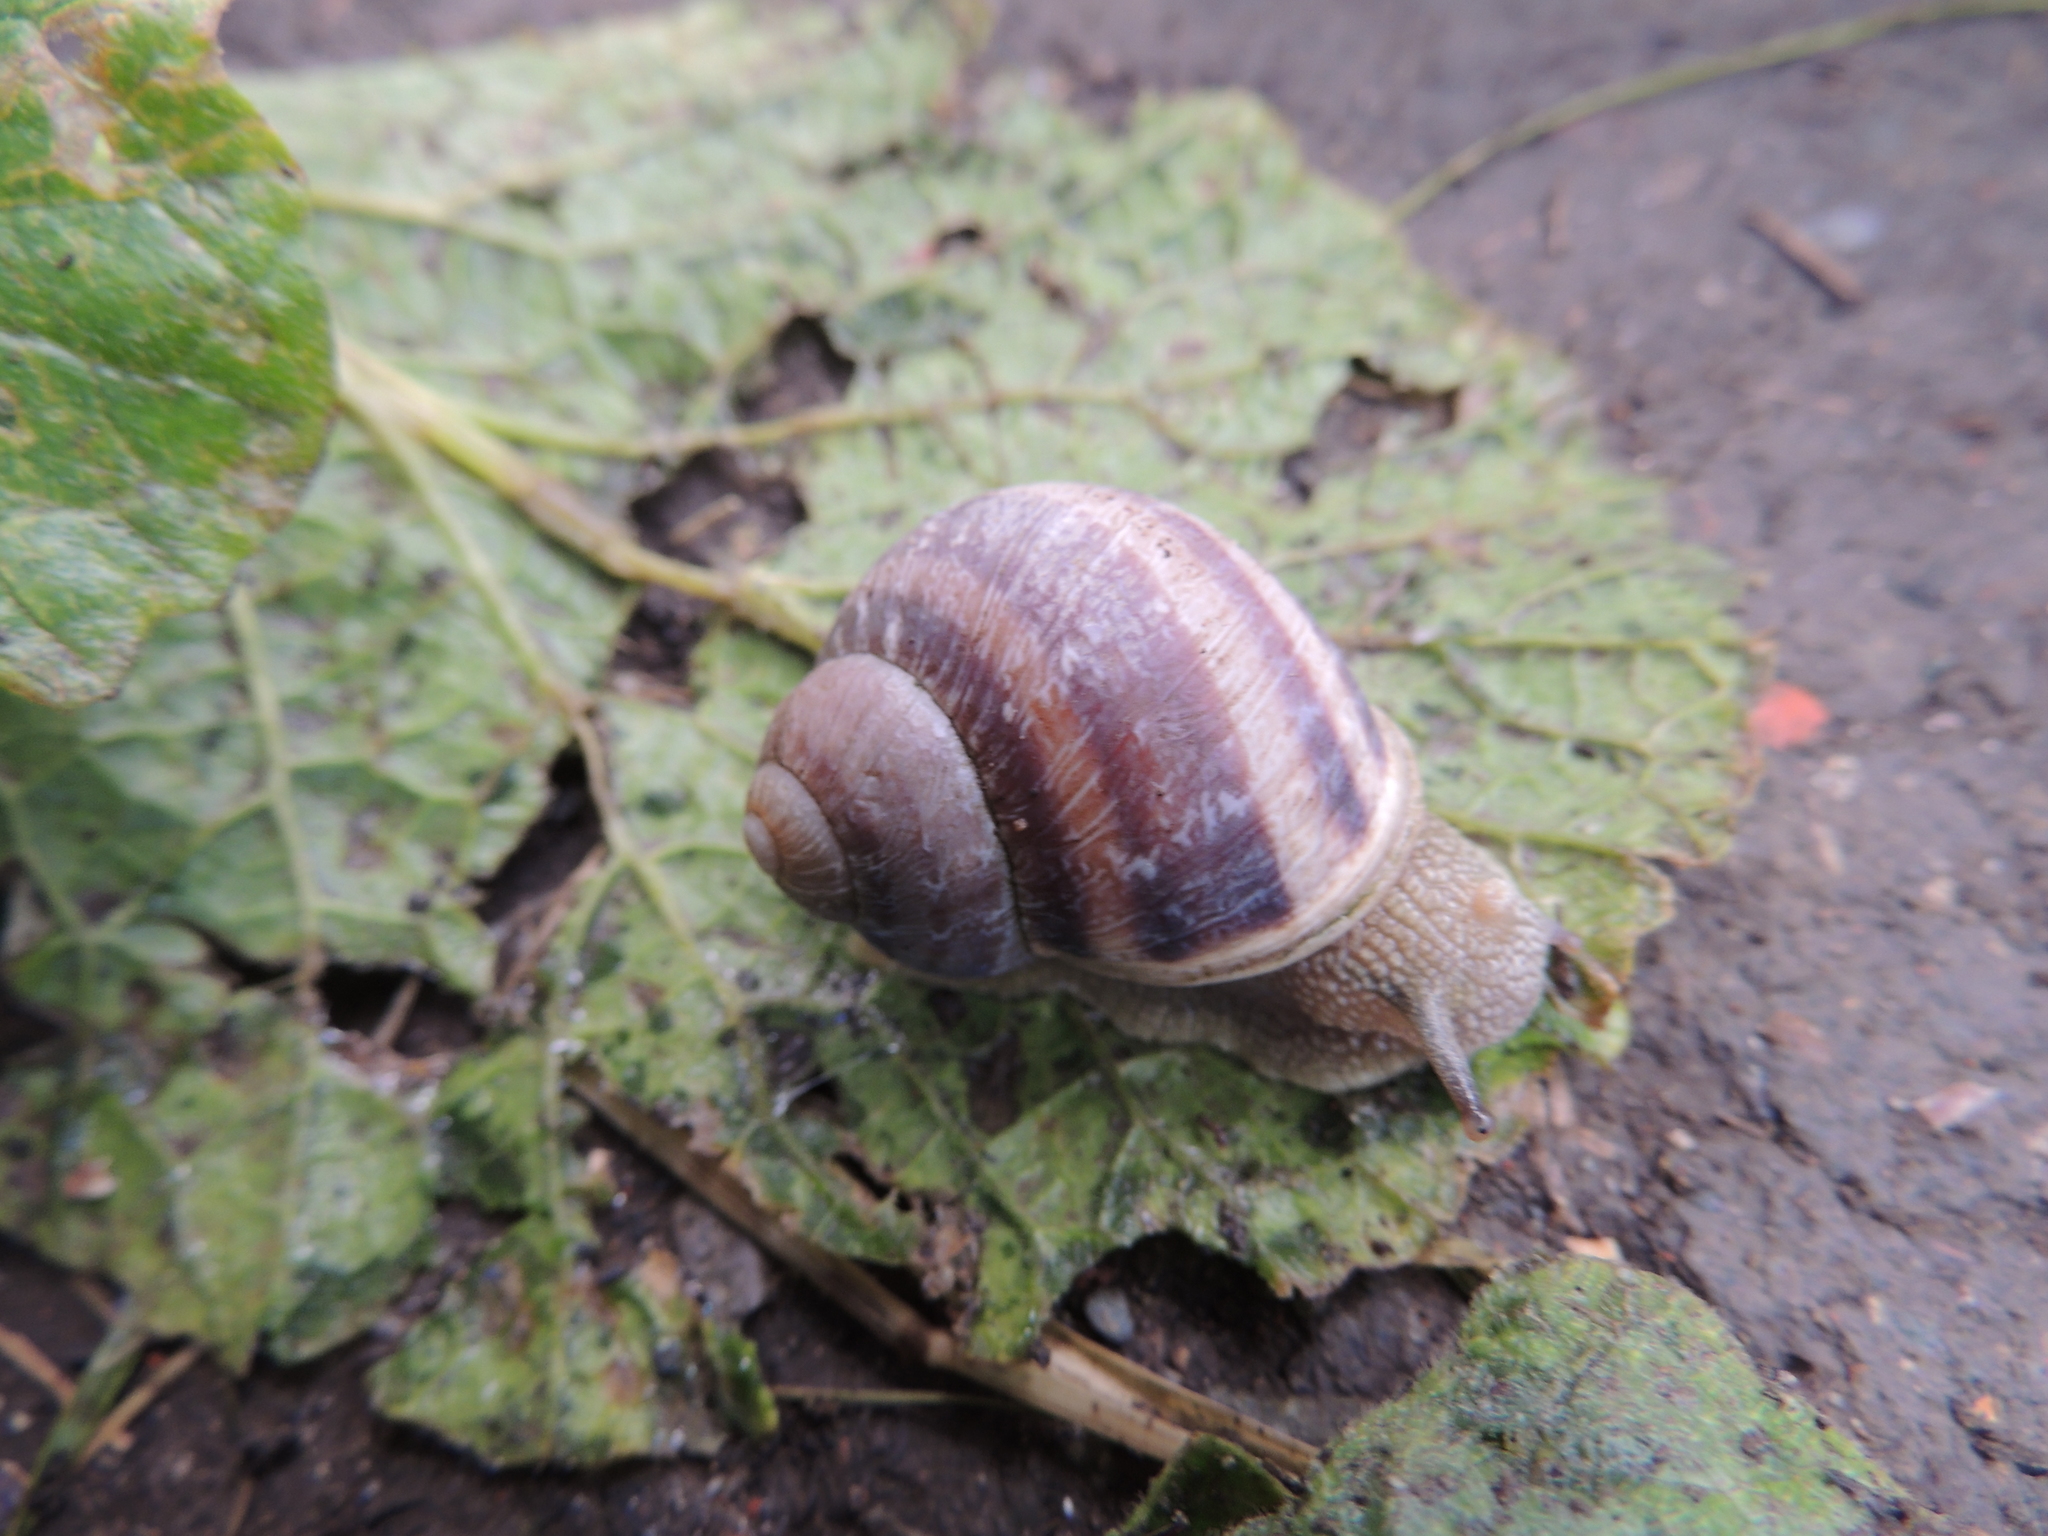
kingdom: Animalia
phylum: Mollusca
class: Gastropoda
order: Stylommatophora
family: Helicidae
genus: Cornu
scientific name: Cornu aspersum
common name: Brown garden snail
